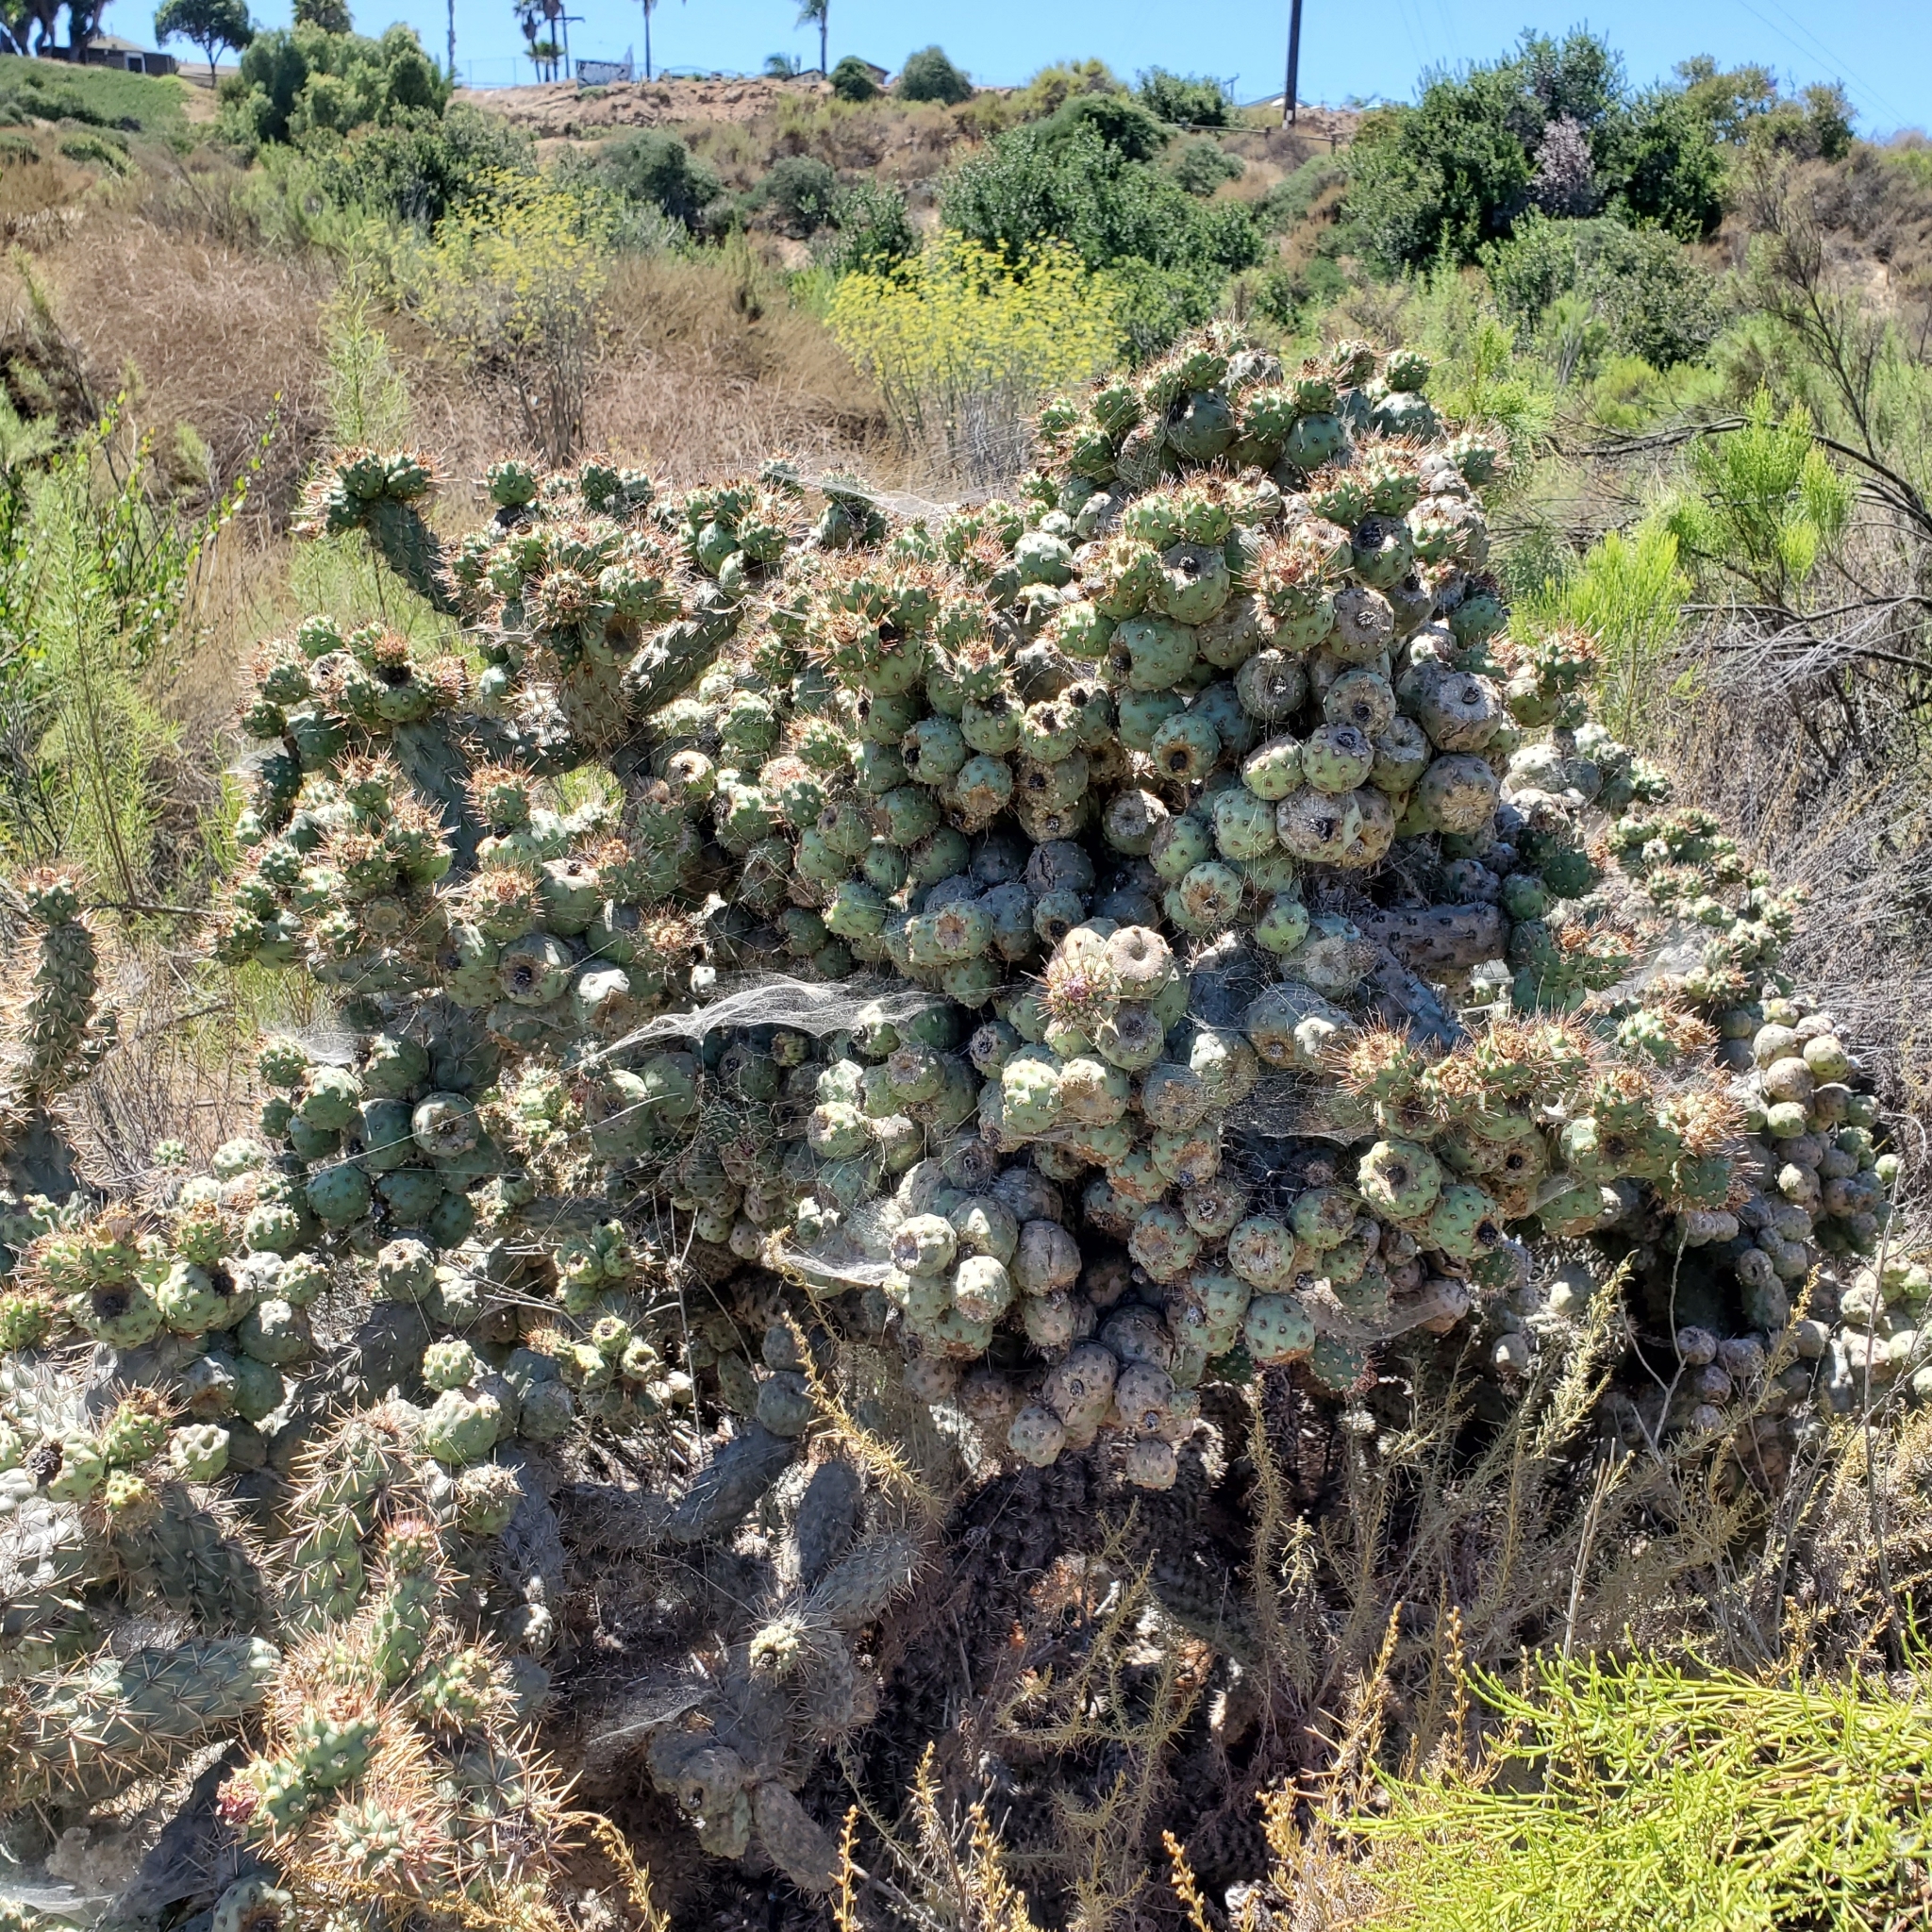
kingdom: Plantae
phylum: Tracheophyta
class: Magnoliopsida
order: Caryophyllales
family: Cactaceae
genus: Cylindropuntia
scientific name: Cylindropuntia prolifera
